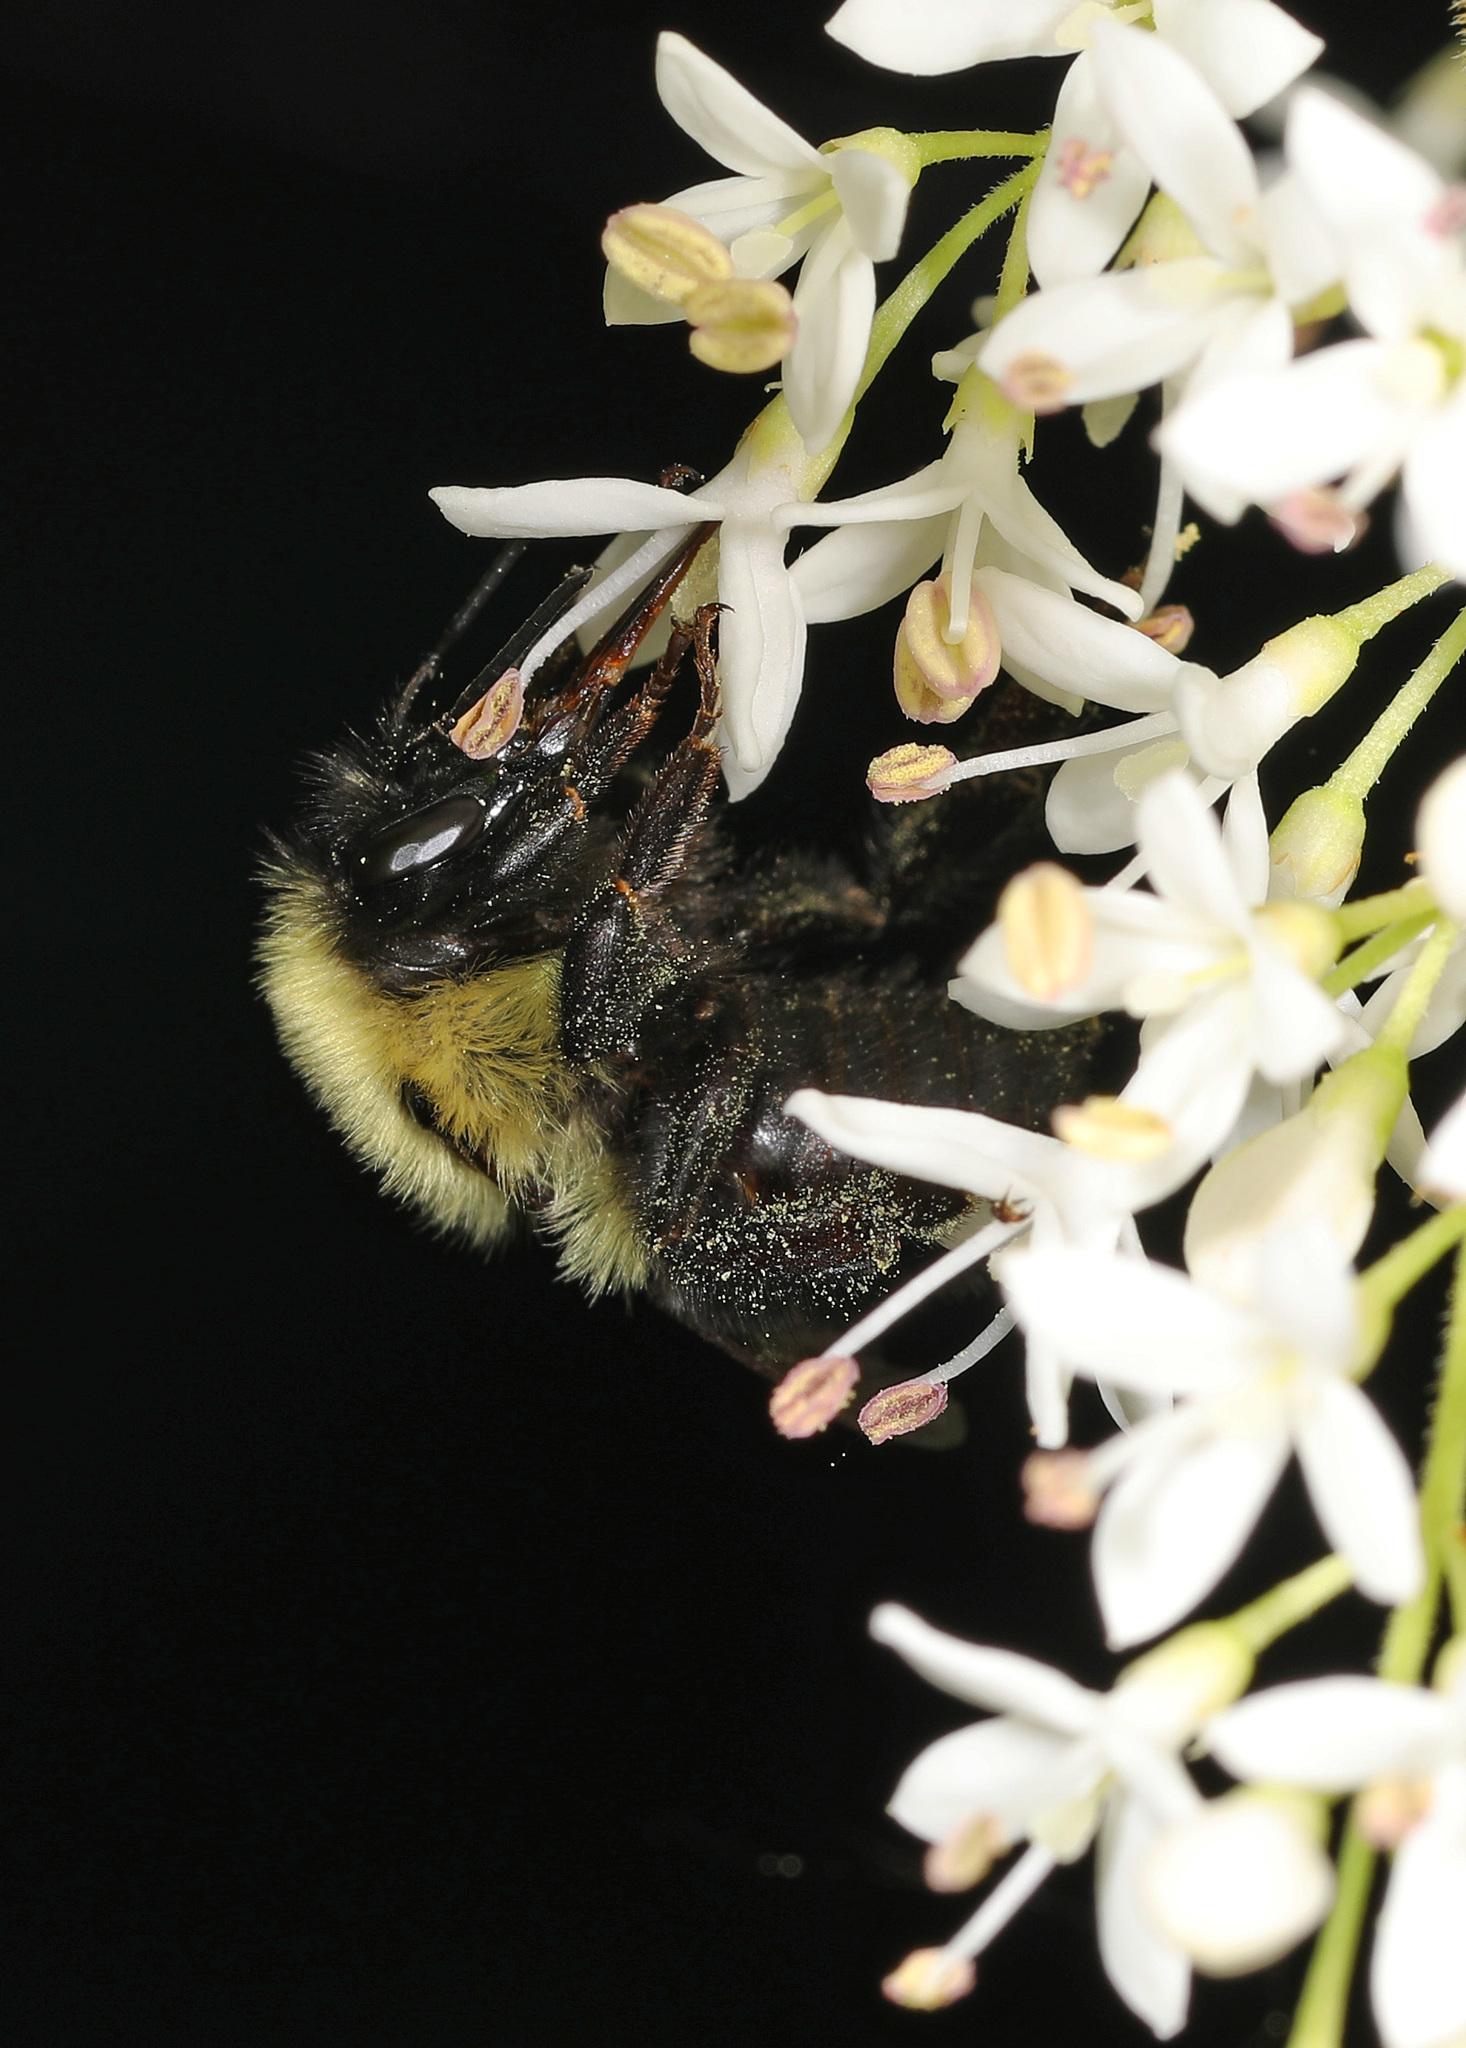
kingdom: Animalia
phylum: Arthropoda
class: Insecta
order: Hymenoptera
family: Apidae
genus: Bombus
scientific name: Bombus bimaculatus
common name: Two-spotted bumble bee
